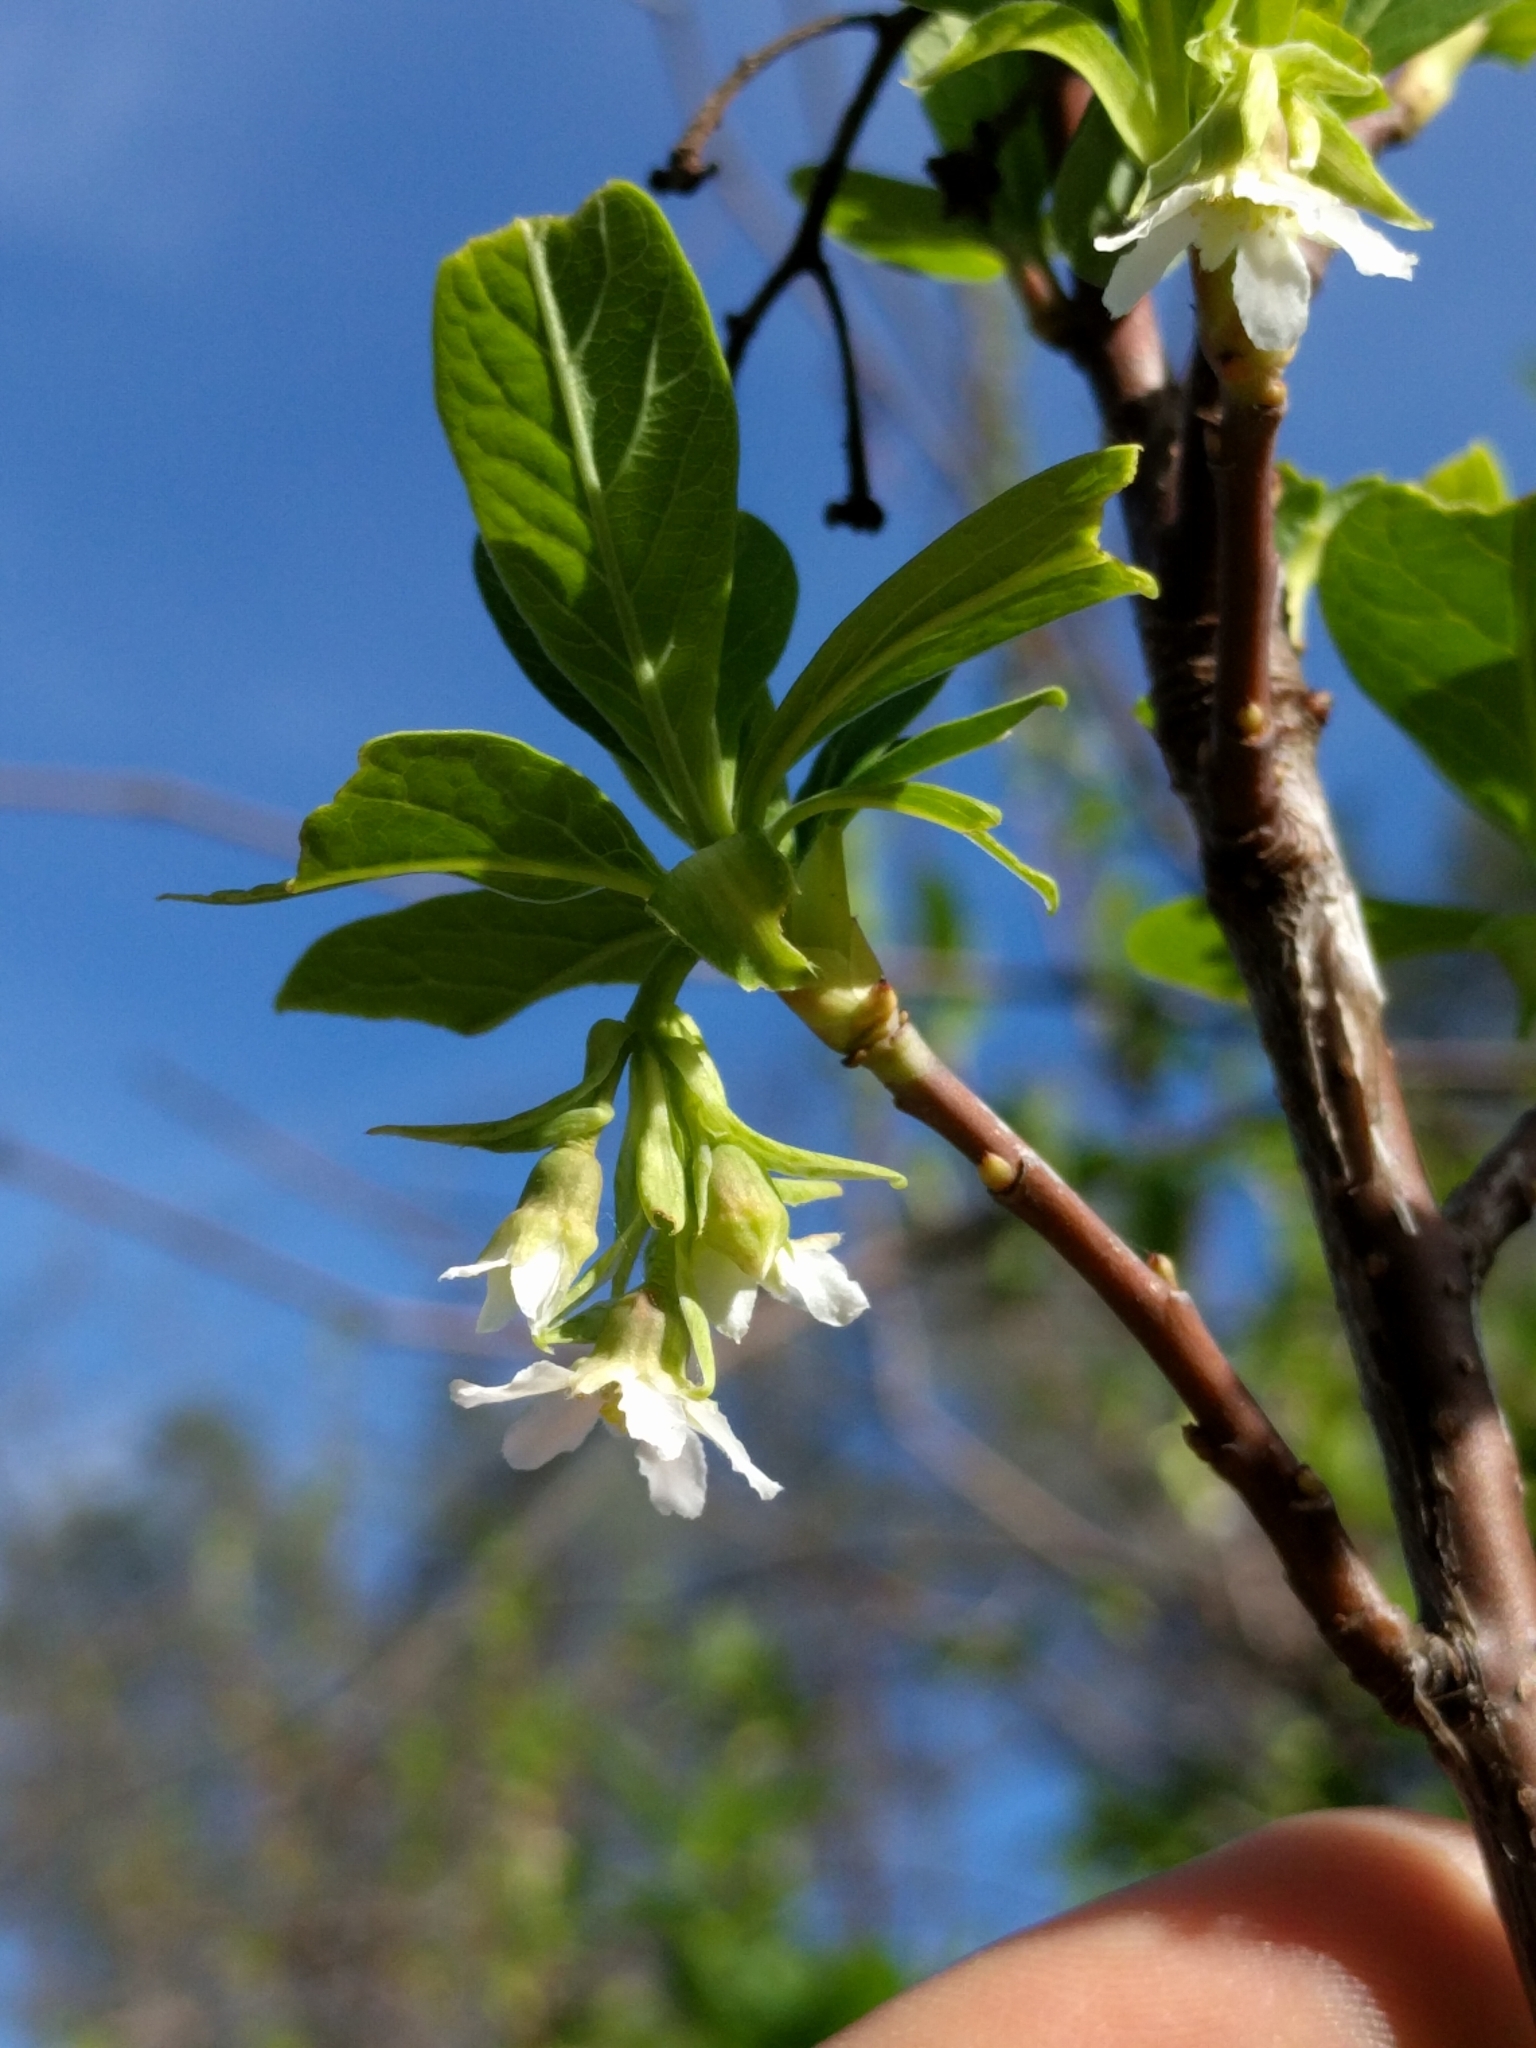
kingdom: Plantae
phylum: Tracheophyta
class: Magnoliopsida
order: Rosales
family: Rosaceae
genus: Oemleria
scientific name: Oemleria cerasiformis
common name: Osoberry
